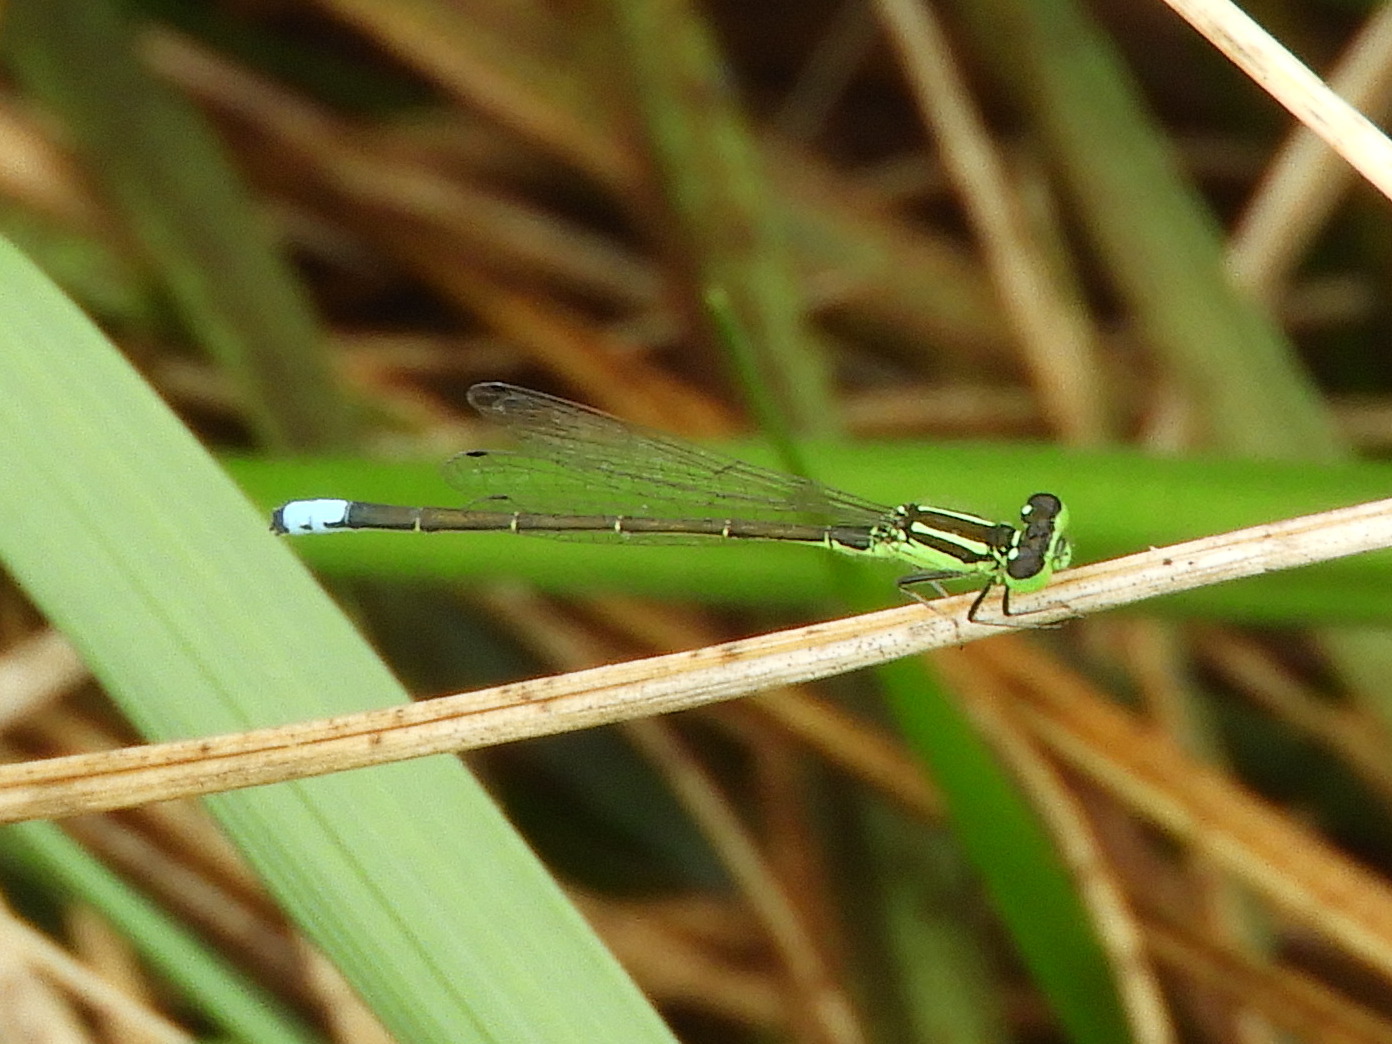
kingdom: Animalia
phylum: Arthropoda
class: Insecta
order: Odonata
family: Coenagrionidae
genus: Ischnura
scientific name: Ischnura verticalis
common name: Eastern forktail
